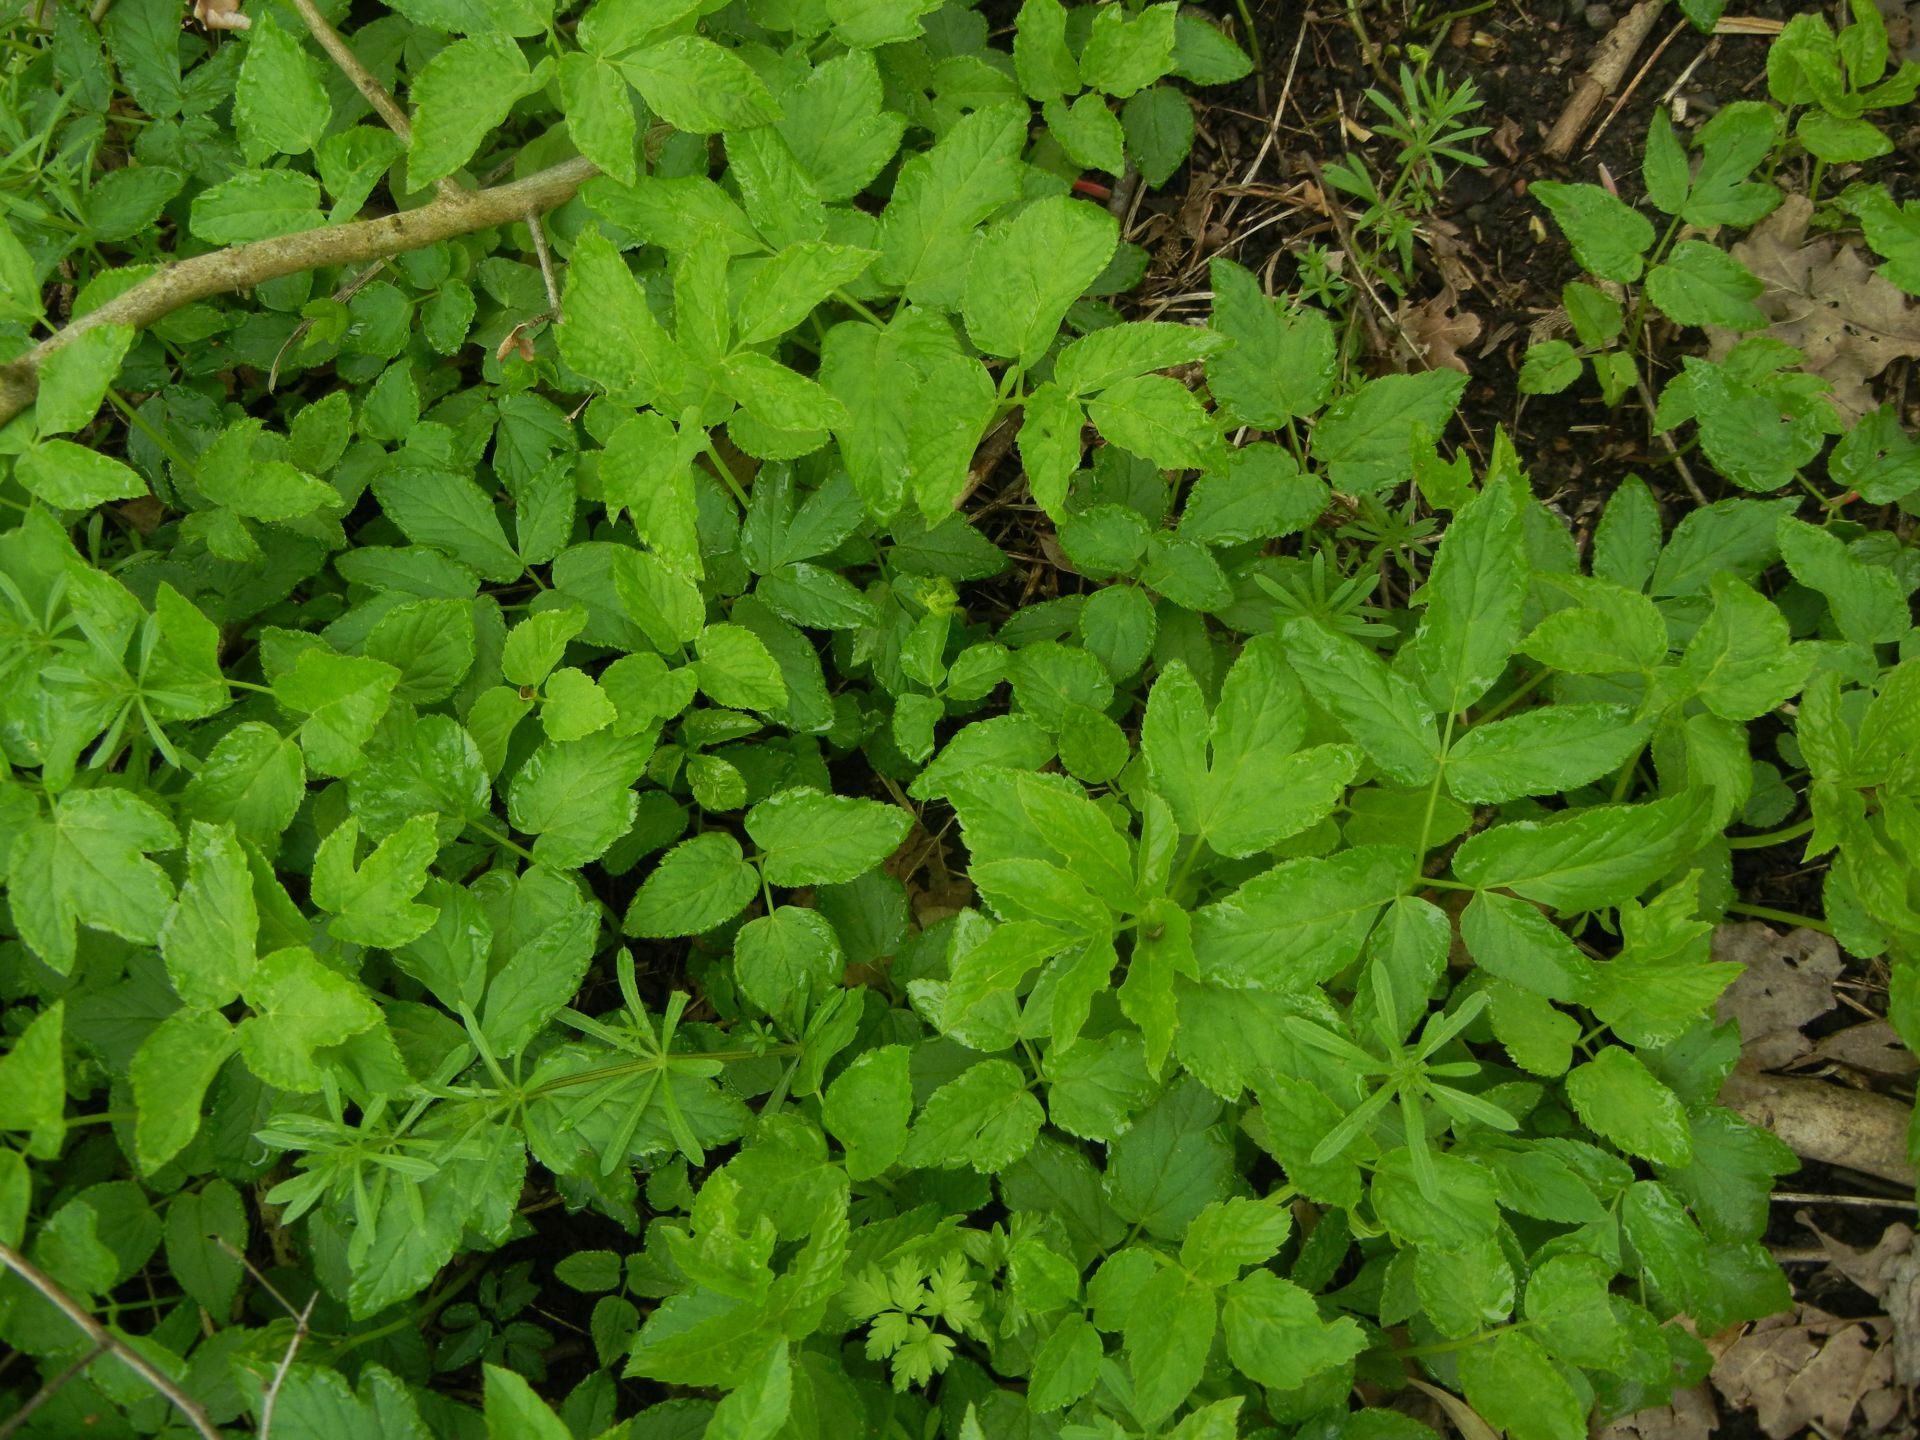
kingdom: Plantae
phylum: Tracheophyta
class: Magnoliopsida
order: Apiales
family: Apiaceae
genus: Aegopodium
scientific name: Aegopodium podagraria
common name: Ground-elder
